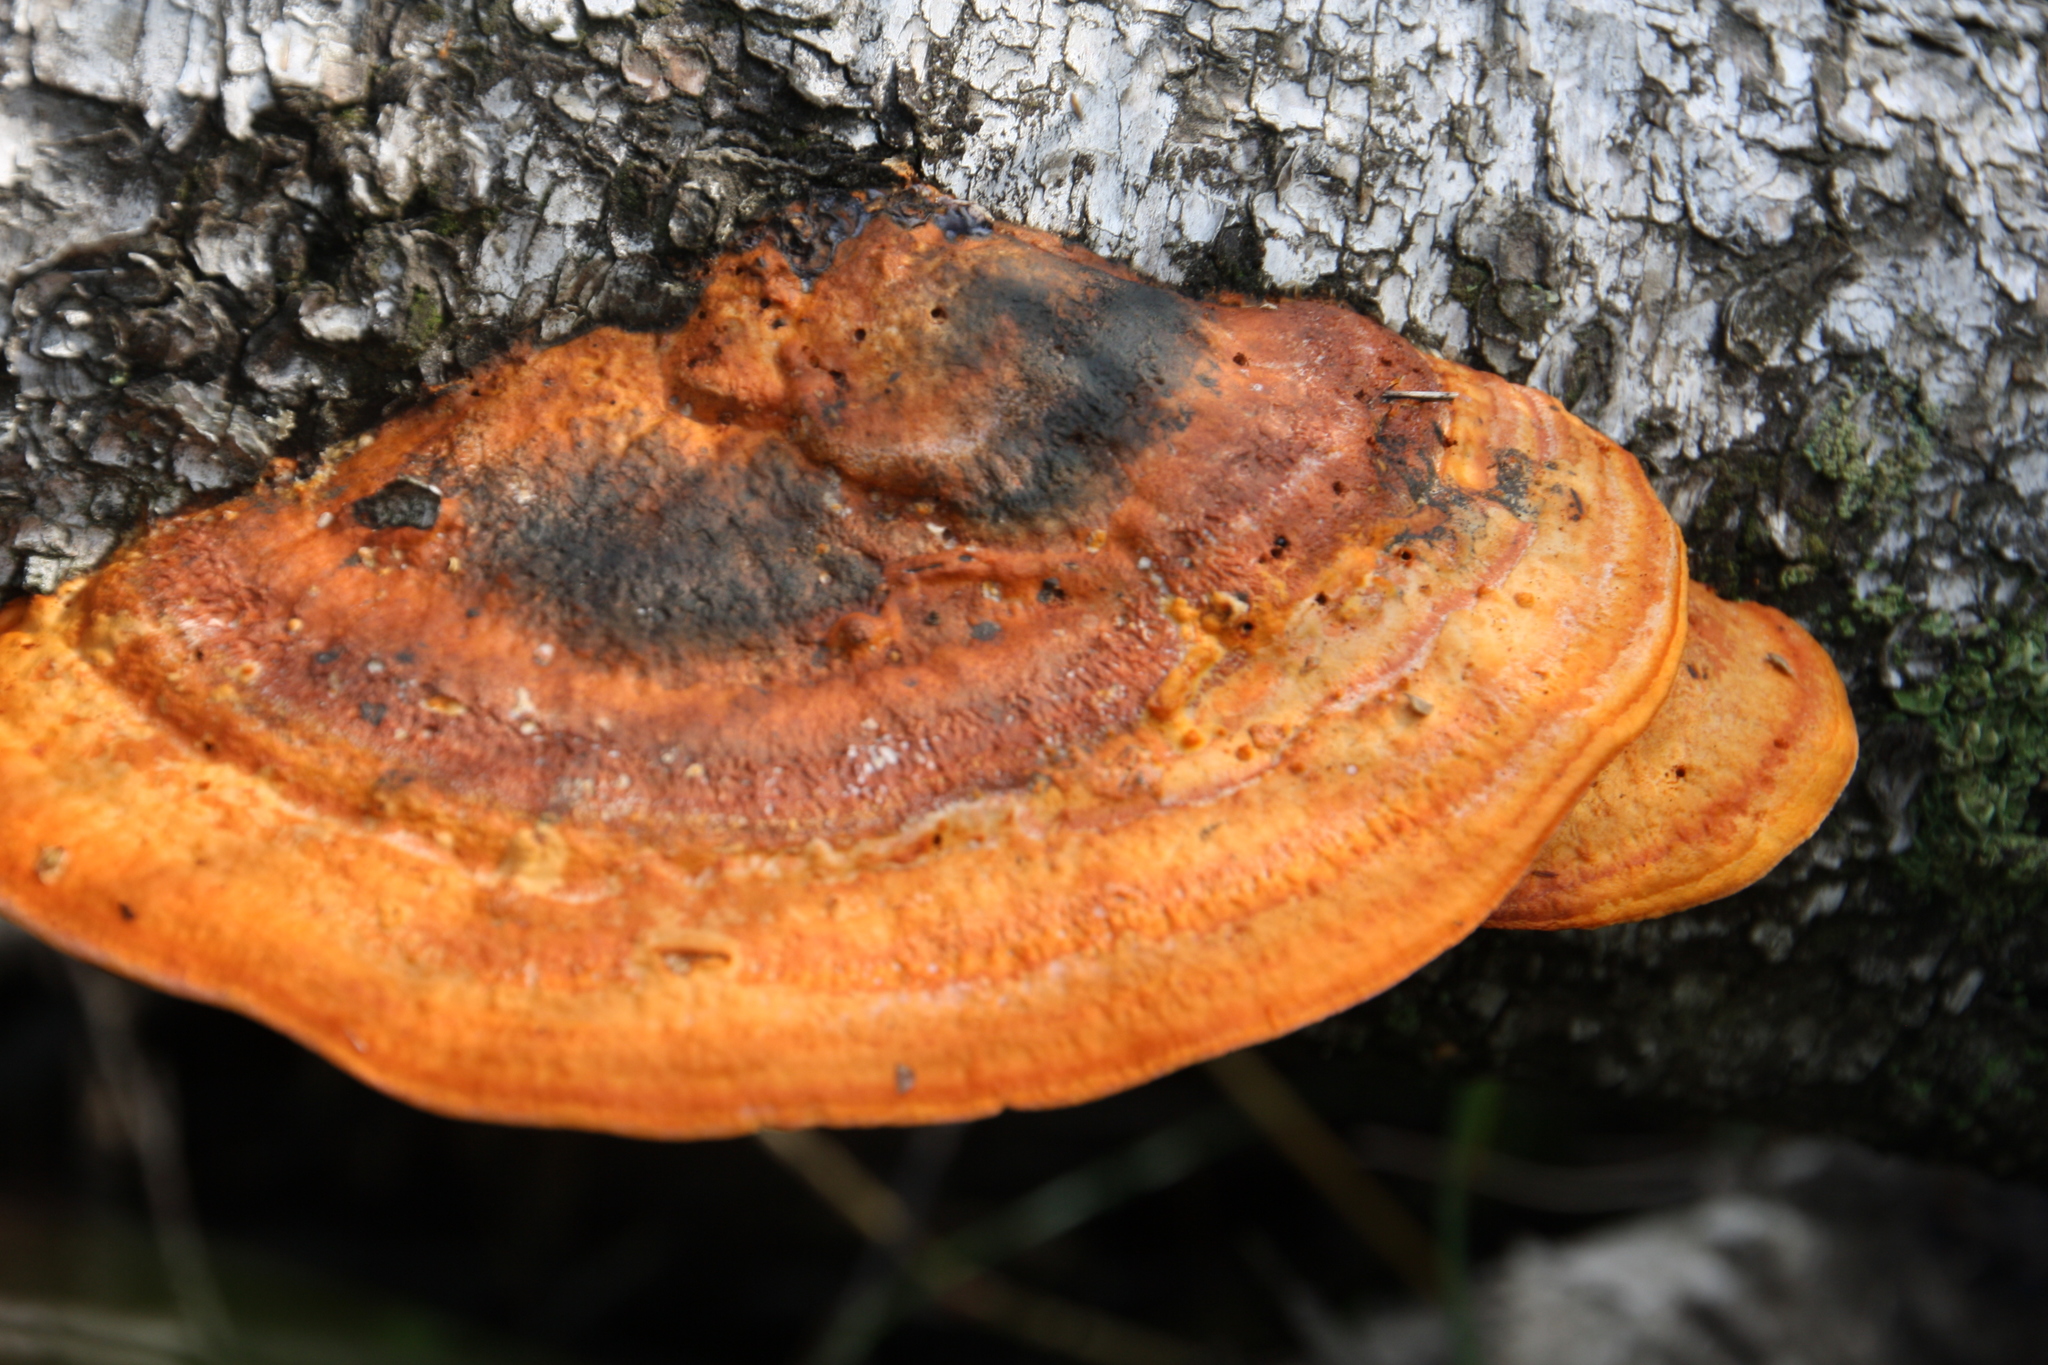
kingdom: Fungi
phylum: Basidiomycota
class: Agaricomycetes
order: Polyporales
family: Polyporaceae
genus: Trametes
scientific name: Trametes cinnabarina
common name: Northern cinnabar polypore
